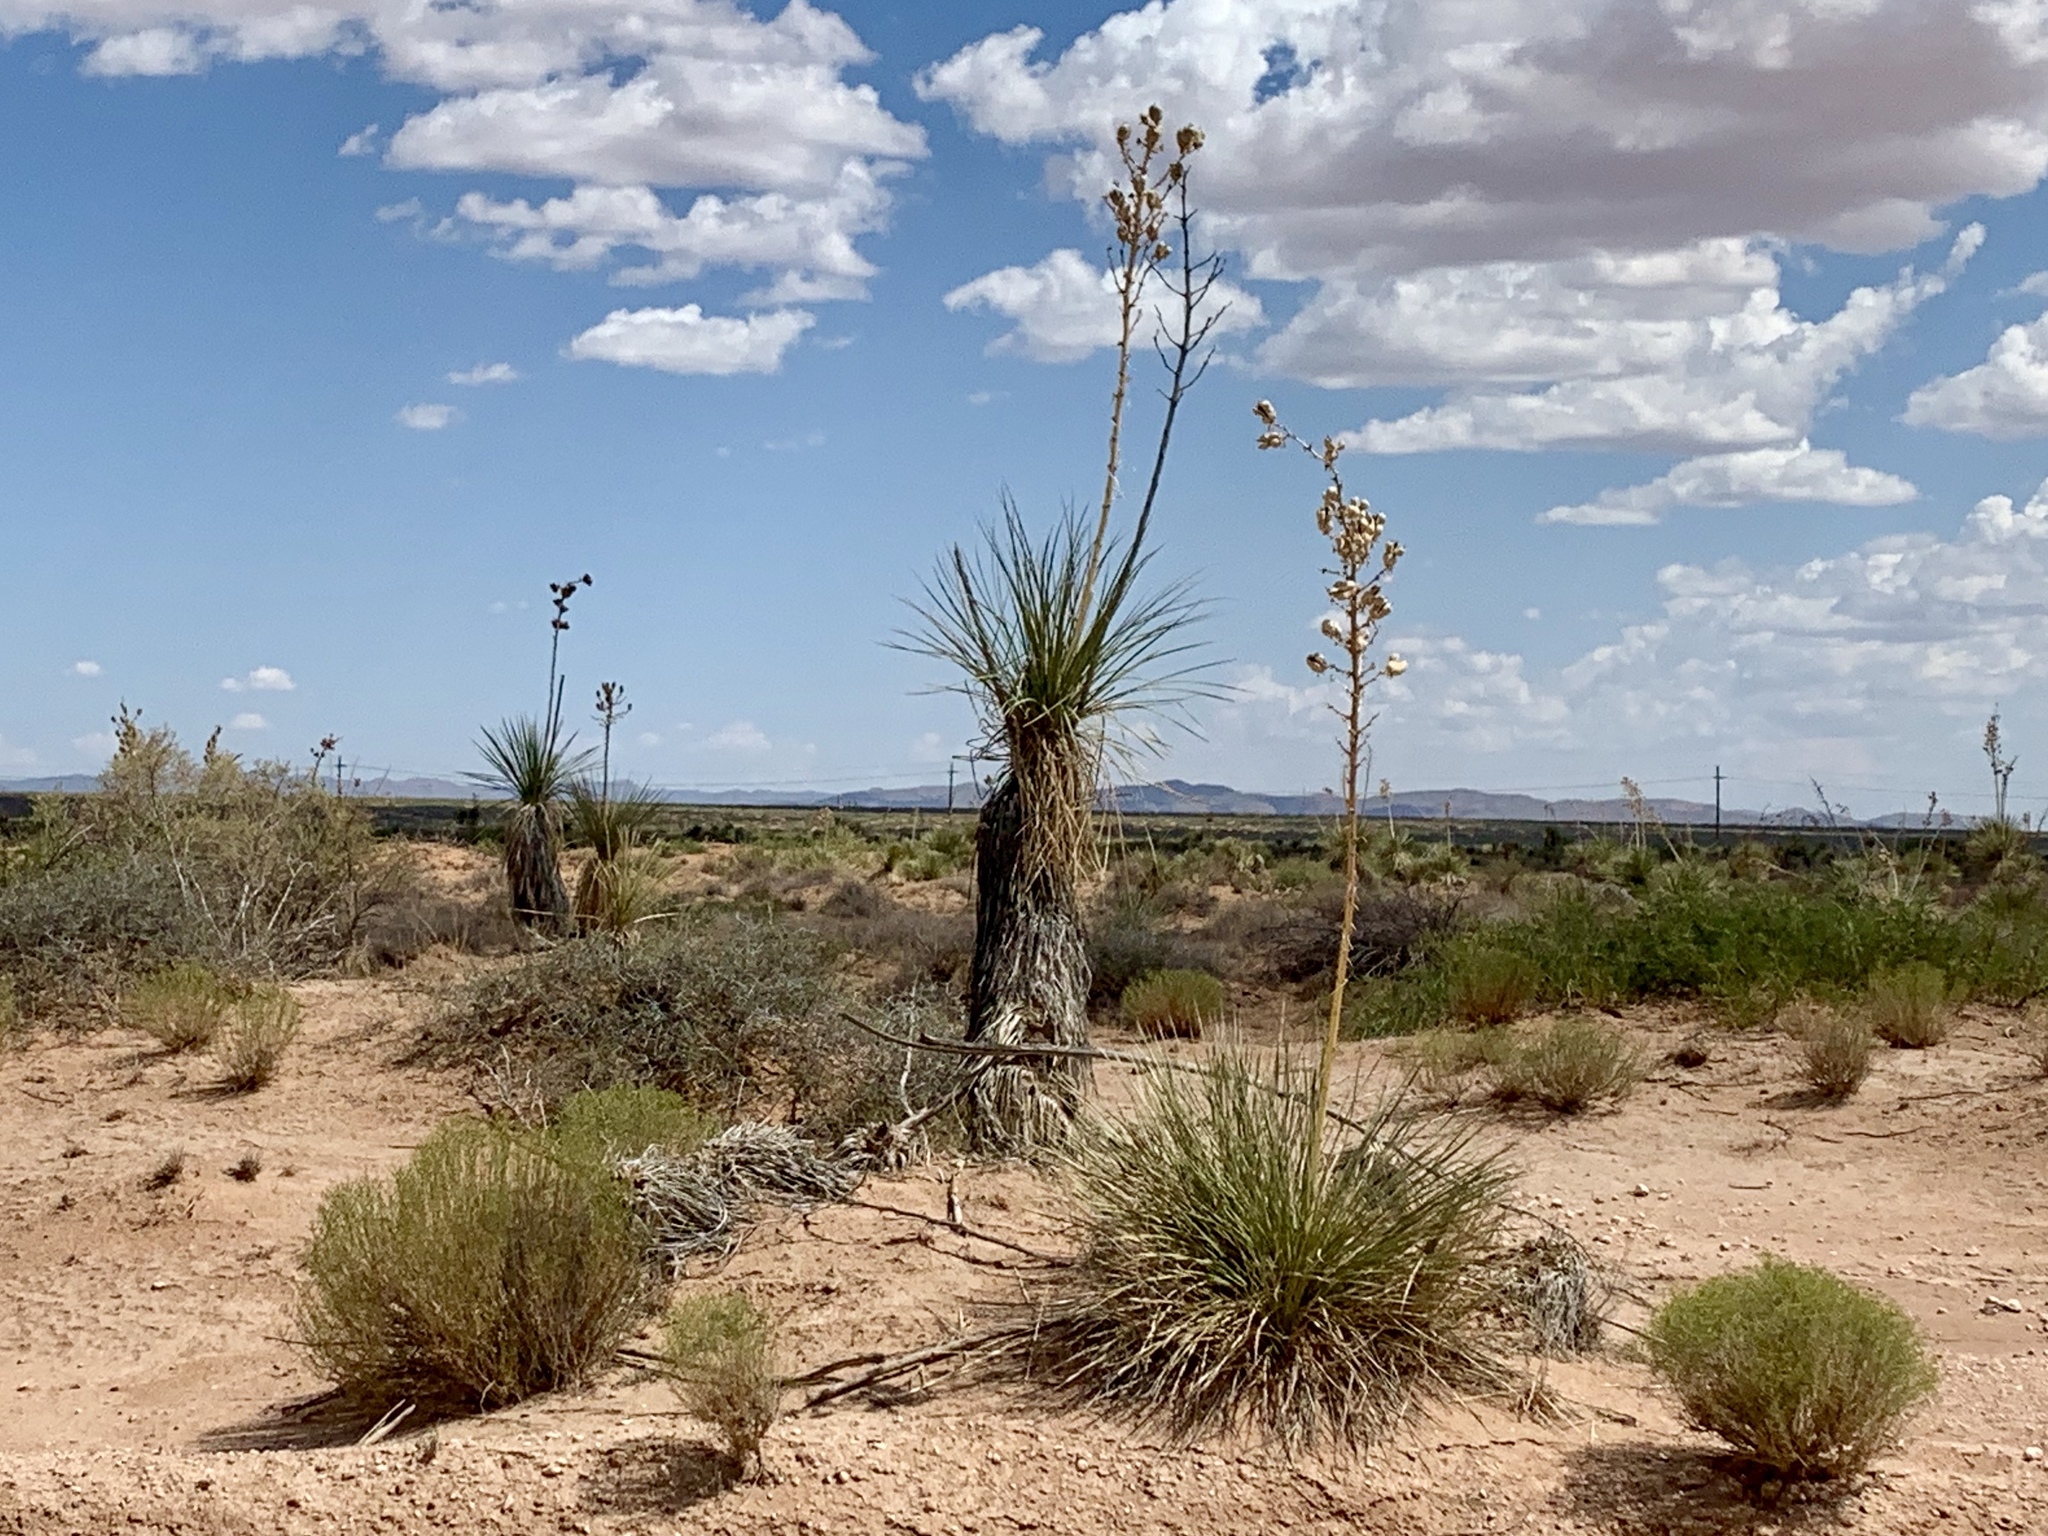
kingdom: Plantae
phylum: Tracheophyta
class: Liliopsida
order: Asparagales
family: Asparagaceae
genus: Yucca
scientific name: Yucca elata
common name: Palmella
